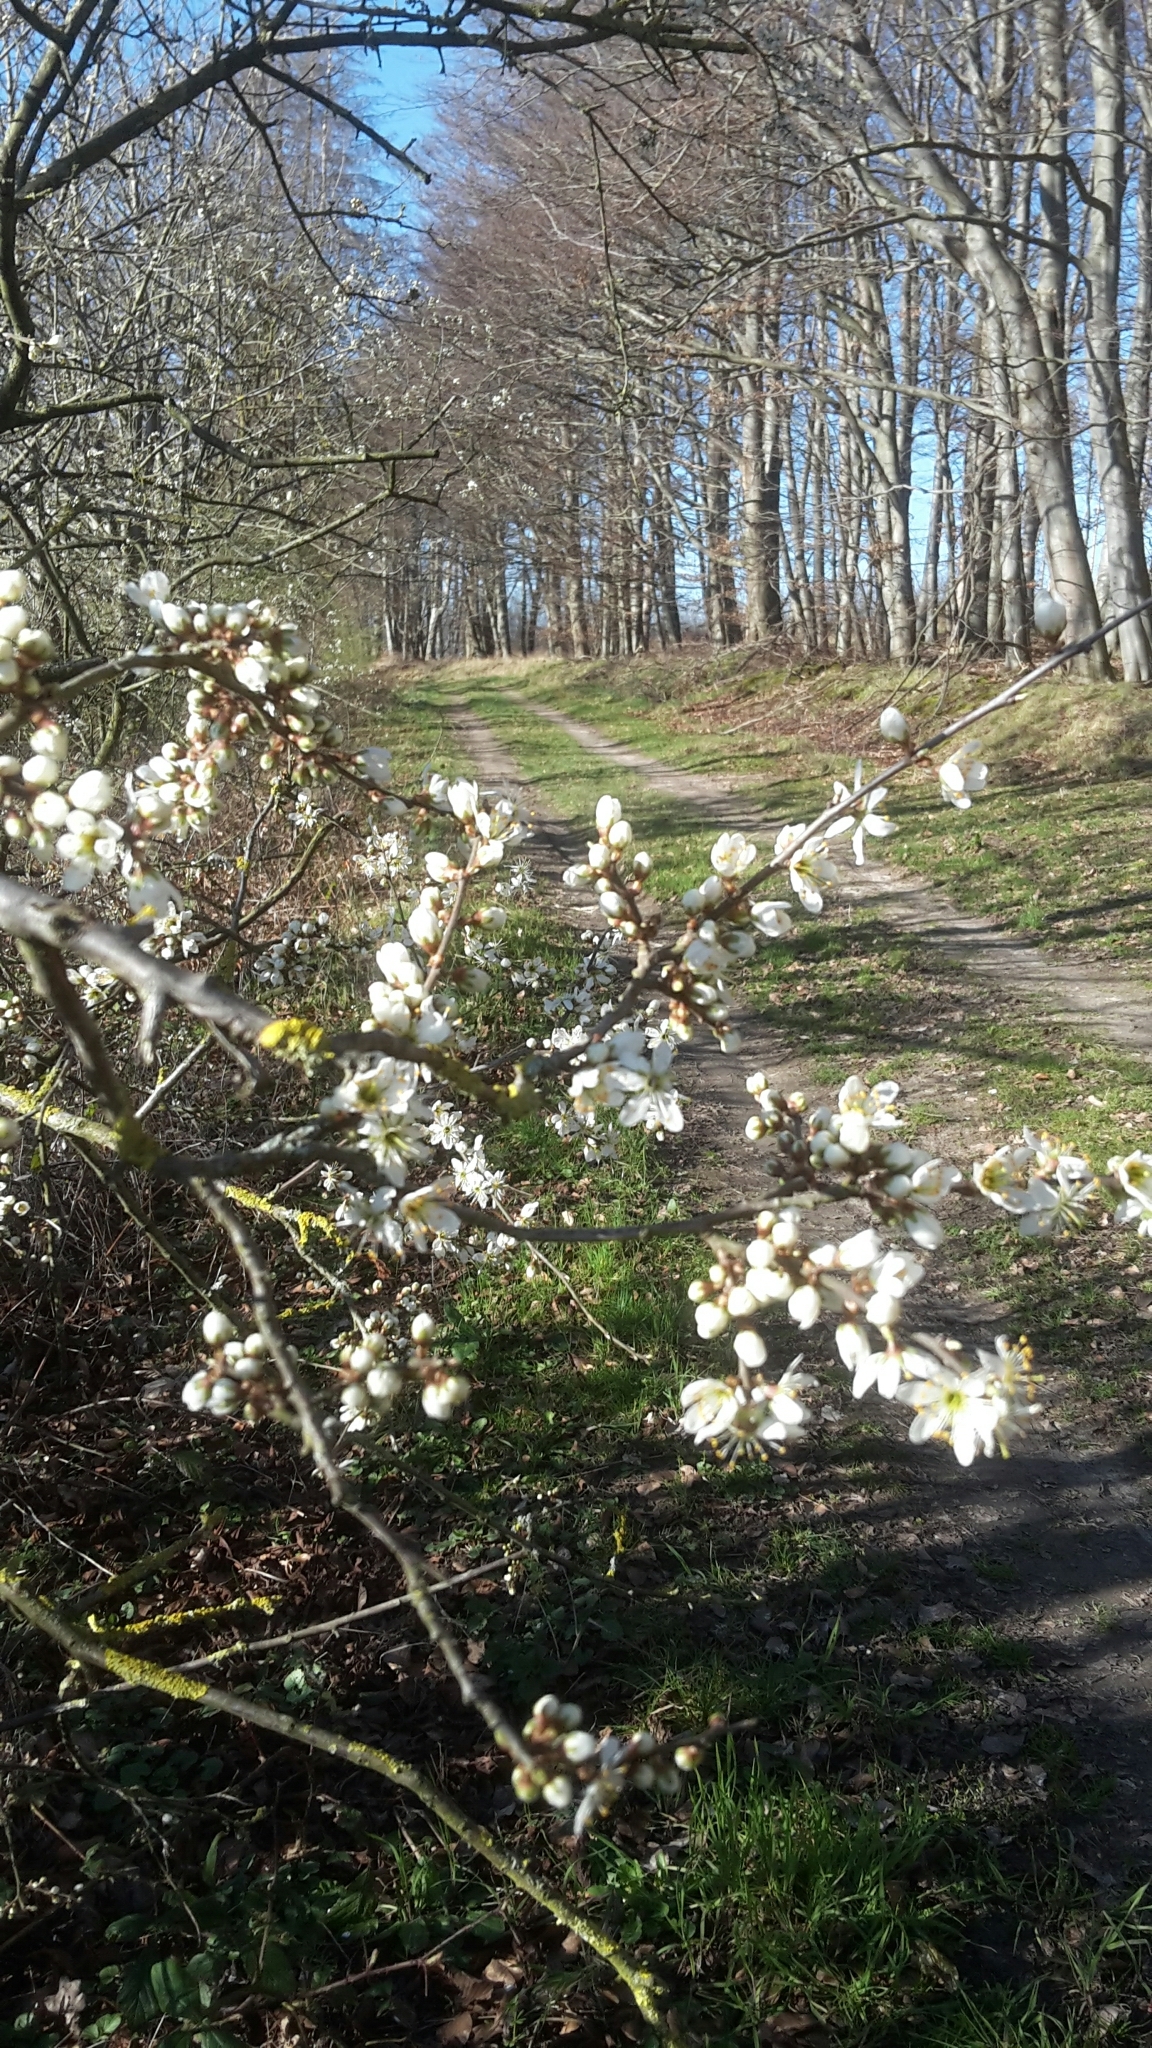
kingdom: Plantae
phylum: Tracheophyta
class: Magnoliopsida
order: Rosales
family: Rosaceae
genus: Prunus
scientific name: Prunus spinosa
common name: Blackthorn
